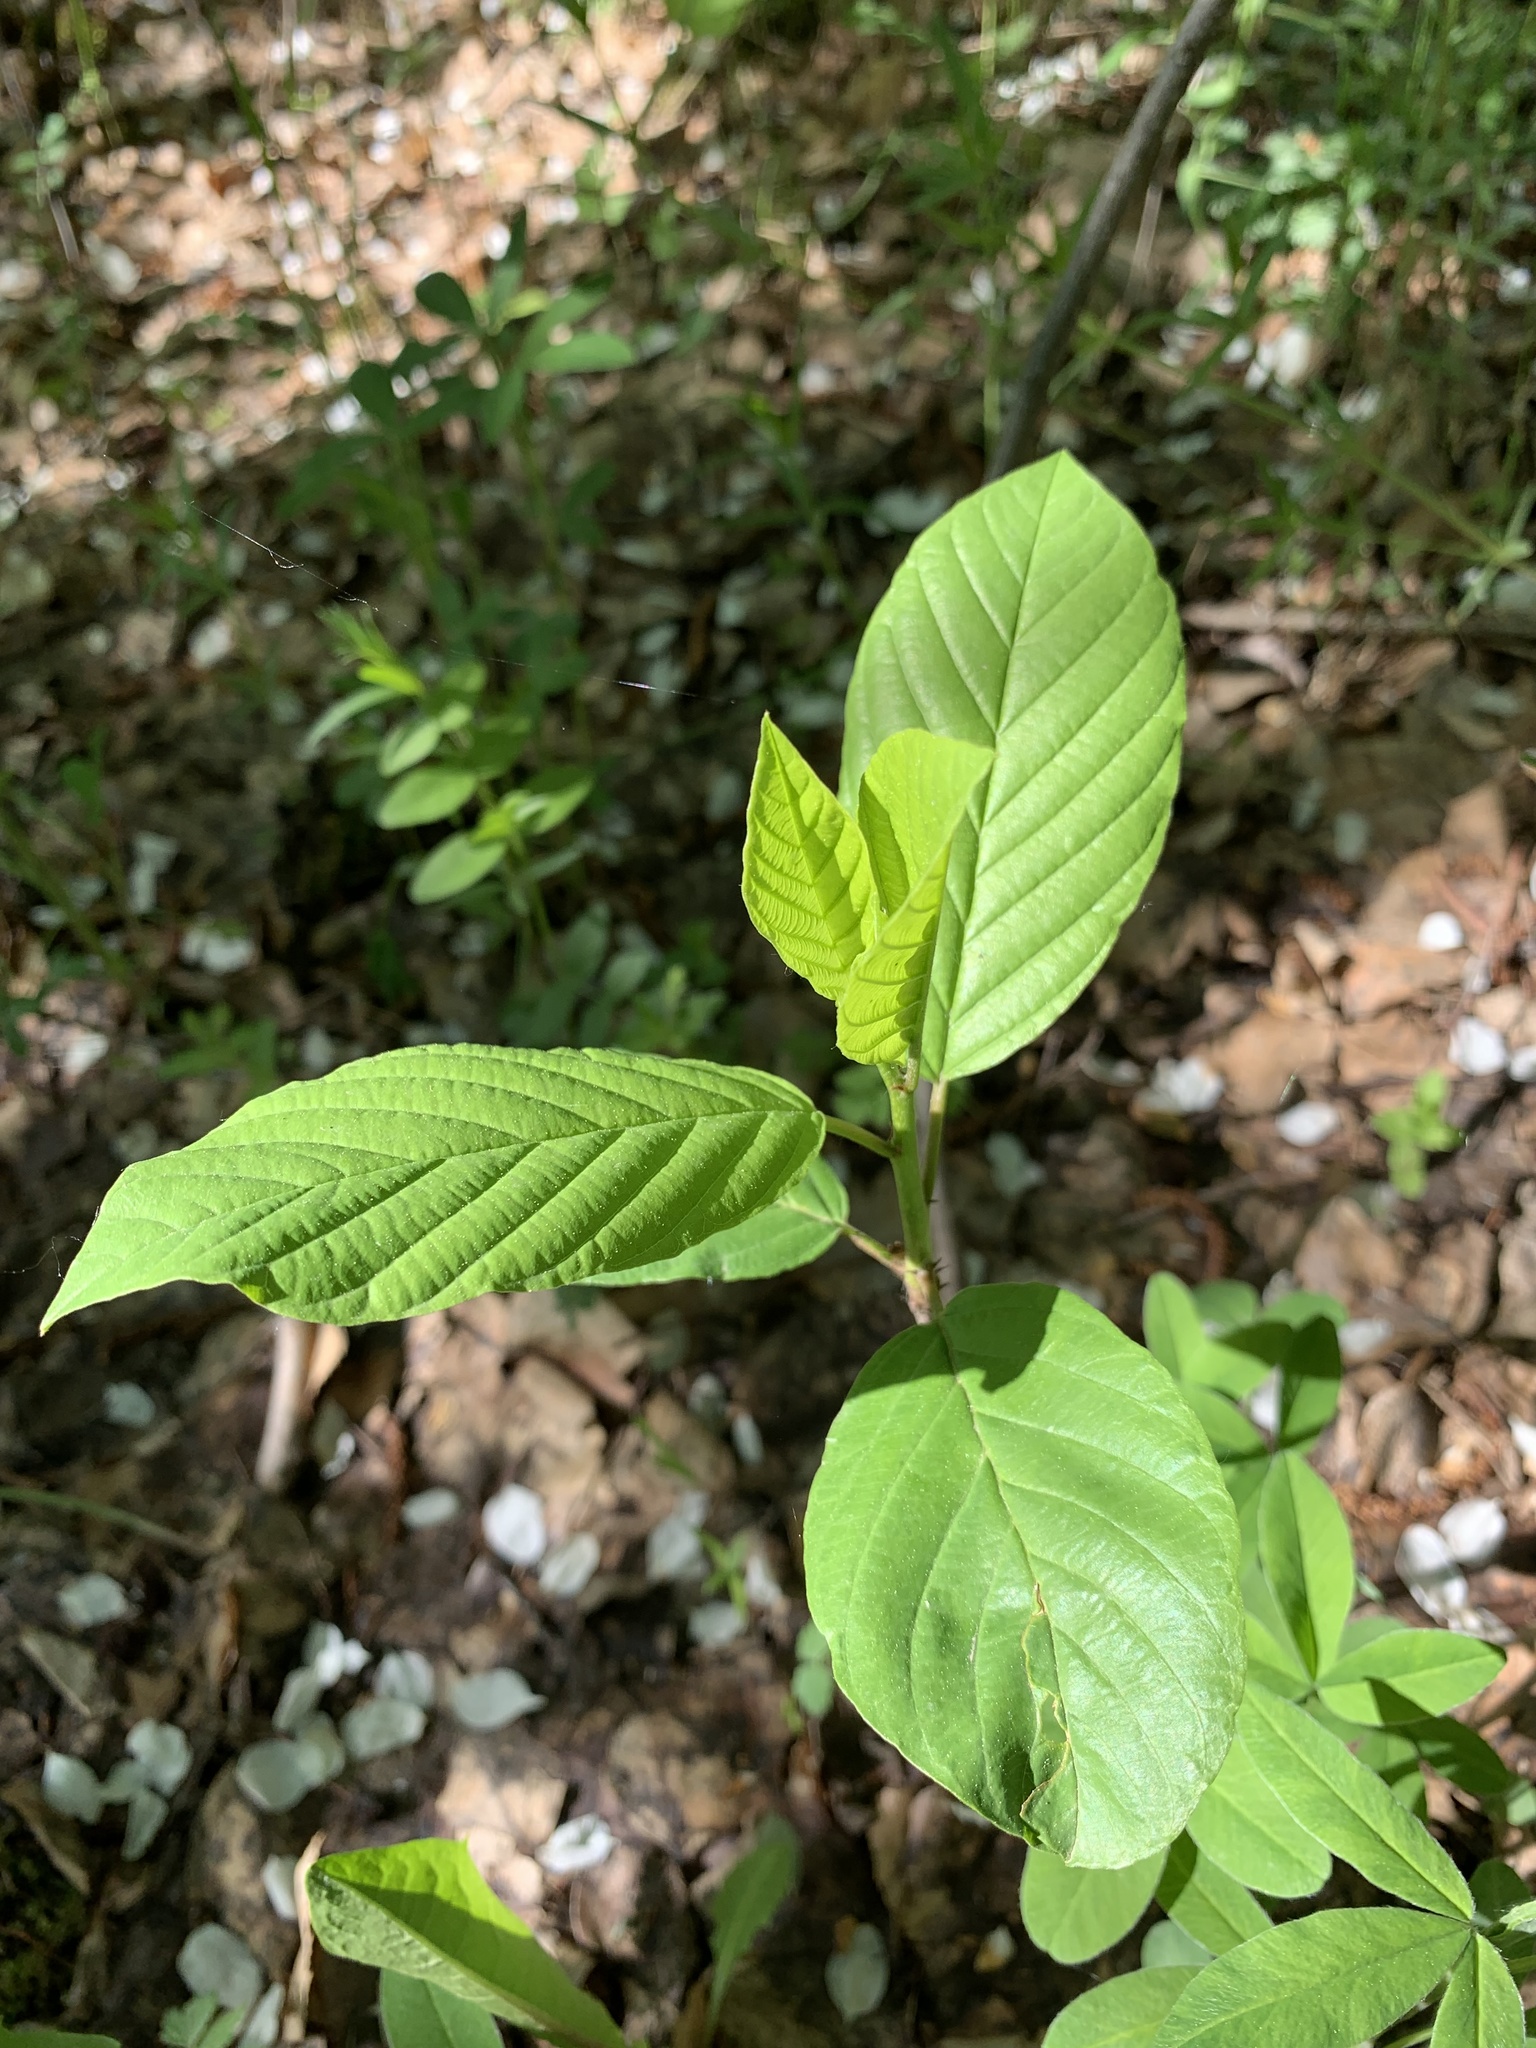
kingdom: Plantae
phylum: Tracheophyta
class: Magnoliopsida
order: Rosales
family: Rhamnaceae
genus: Frangula
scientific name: Frangula alnus
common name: Alder buckthorn
